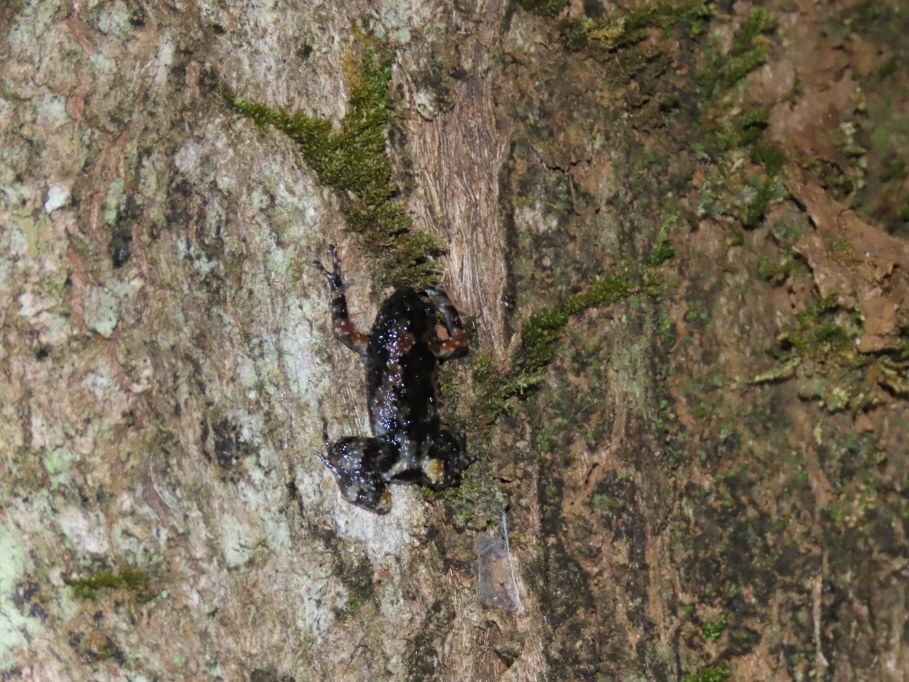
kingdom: Animalia
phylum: Chordata
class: Amphibia
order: Anura
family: Microhylidae
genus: Uperodon
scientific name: Uperodon mormoratus
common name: Indian dot frog
